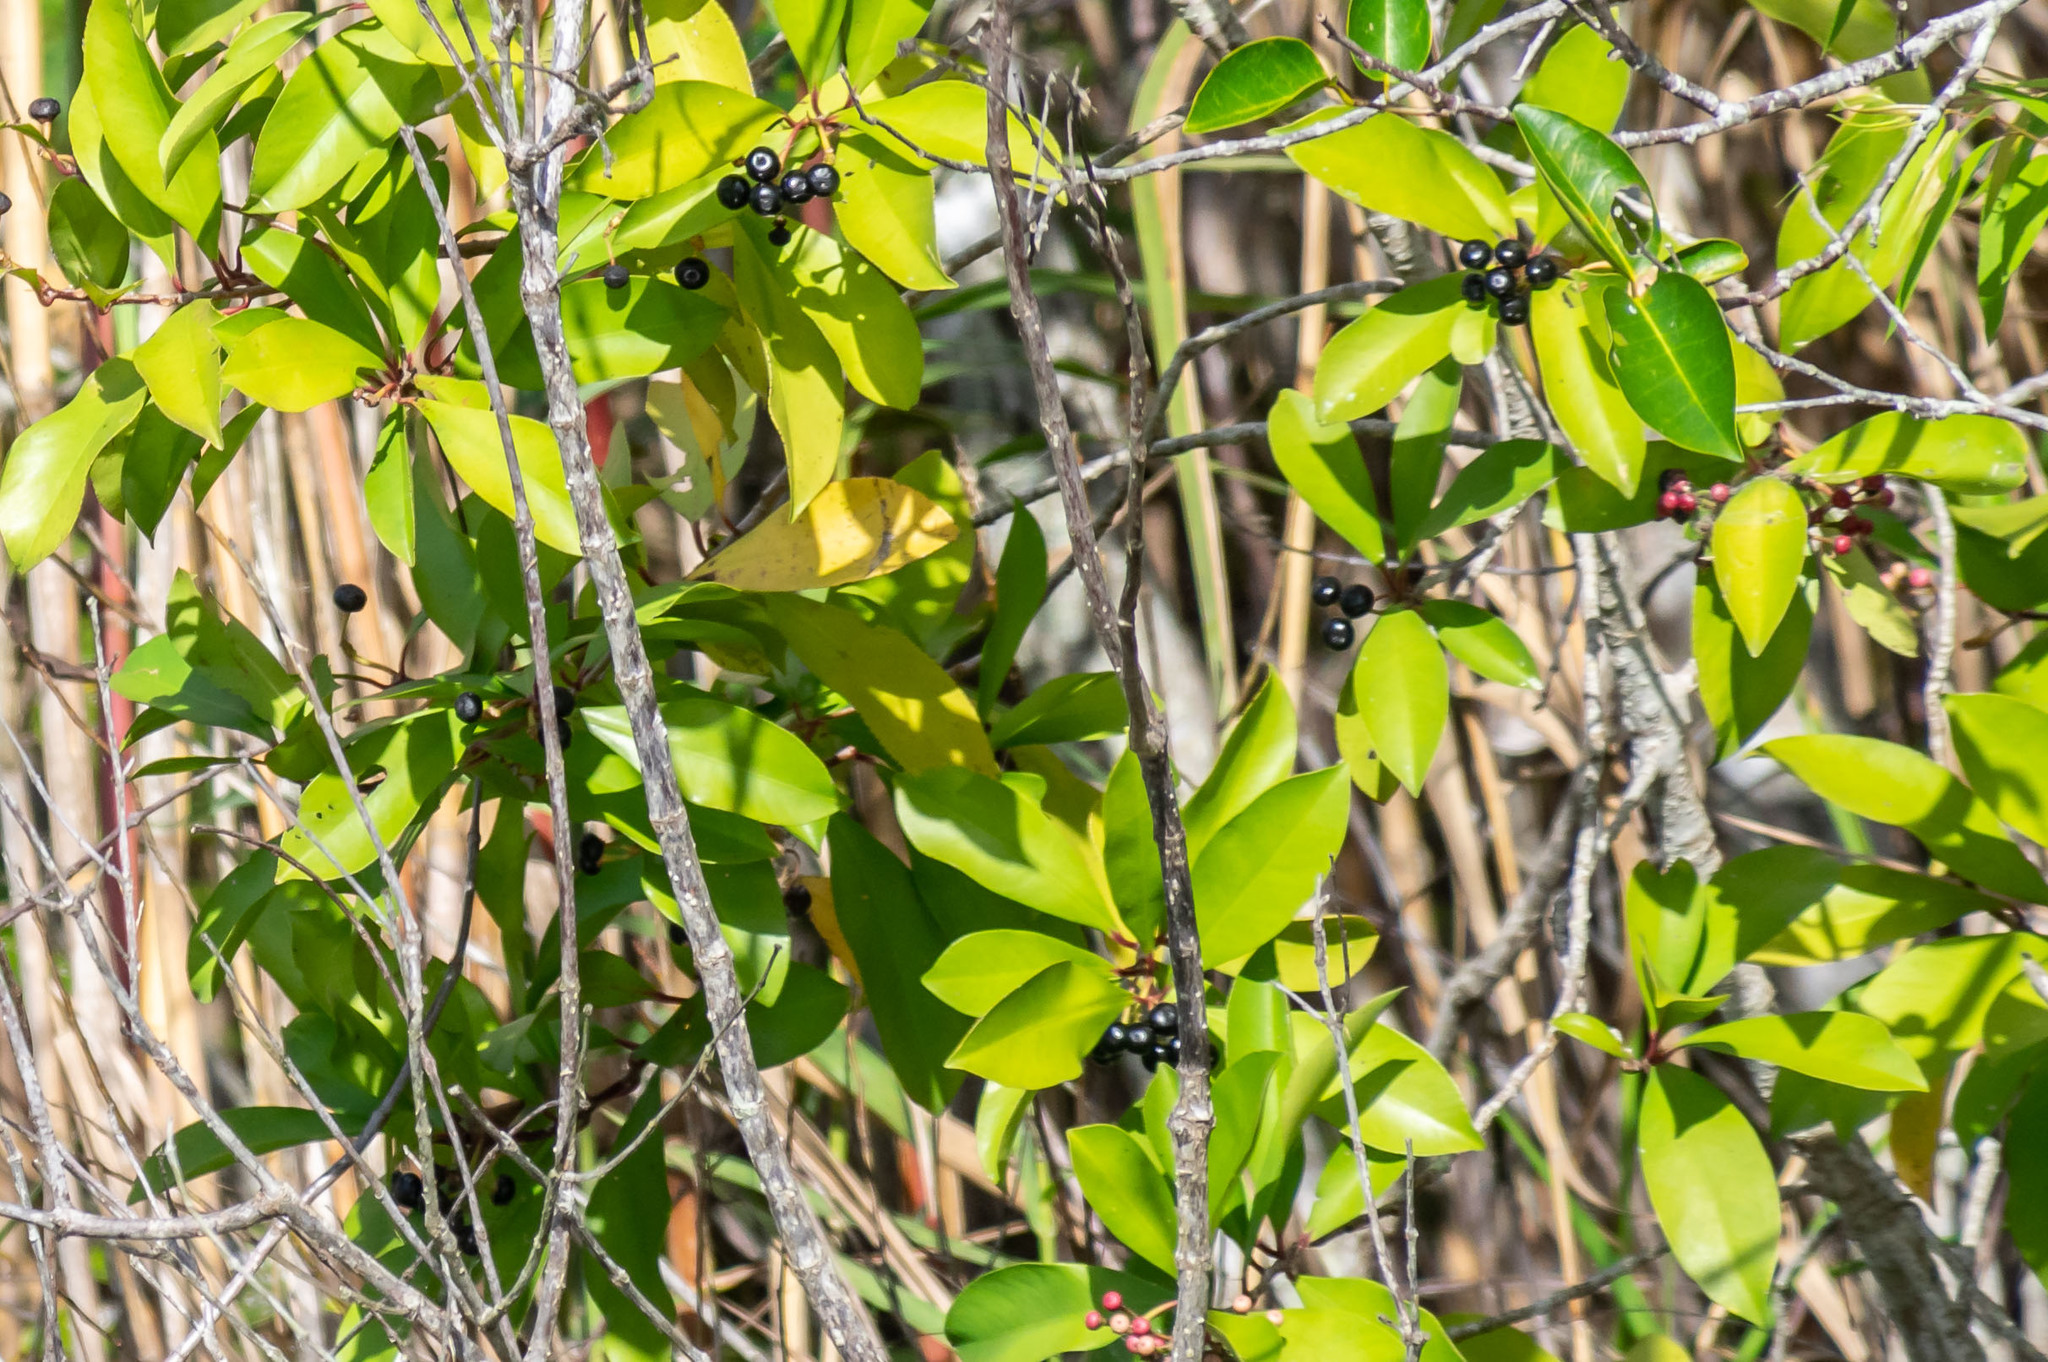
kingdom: Plantae
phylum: Tracheophyta
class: Magnoliopsida
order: Ericales
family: Primulaceae
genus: Ardisia
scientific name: Ardisia elliptica
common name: Shoebutton
